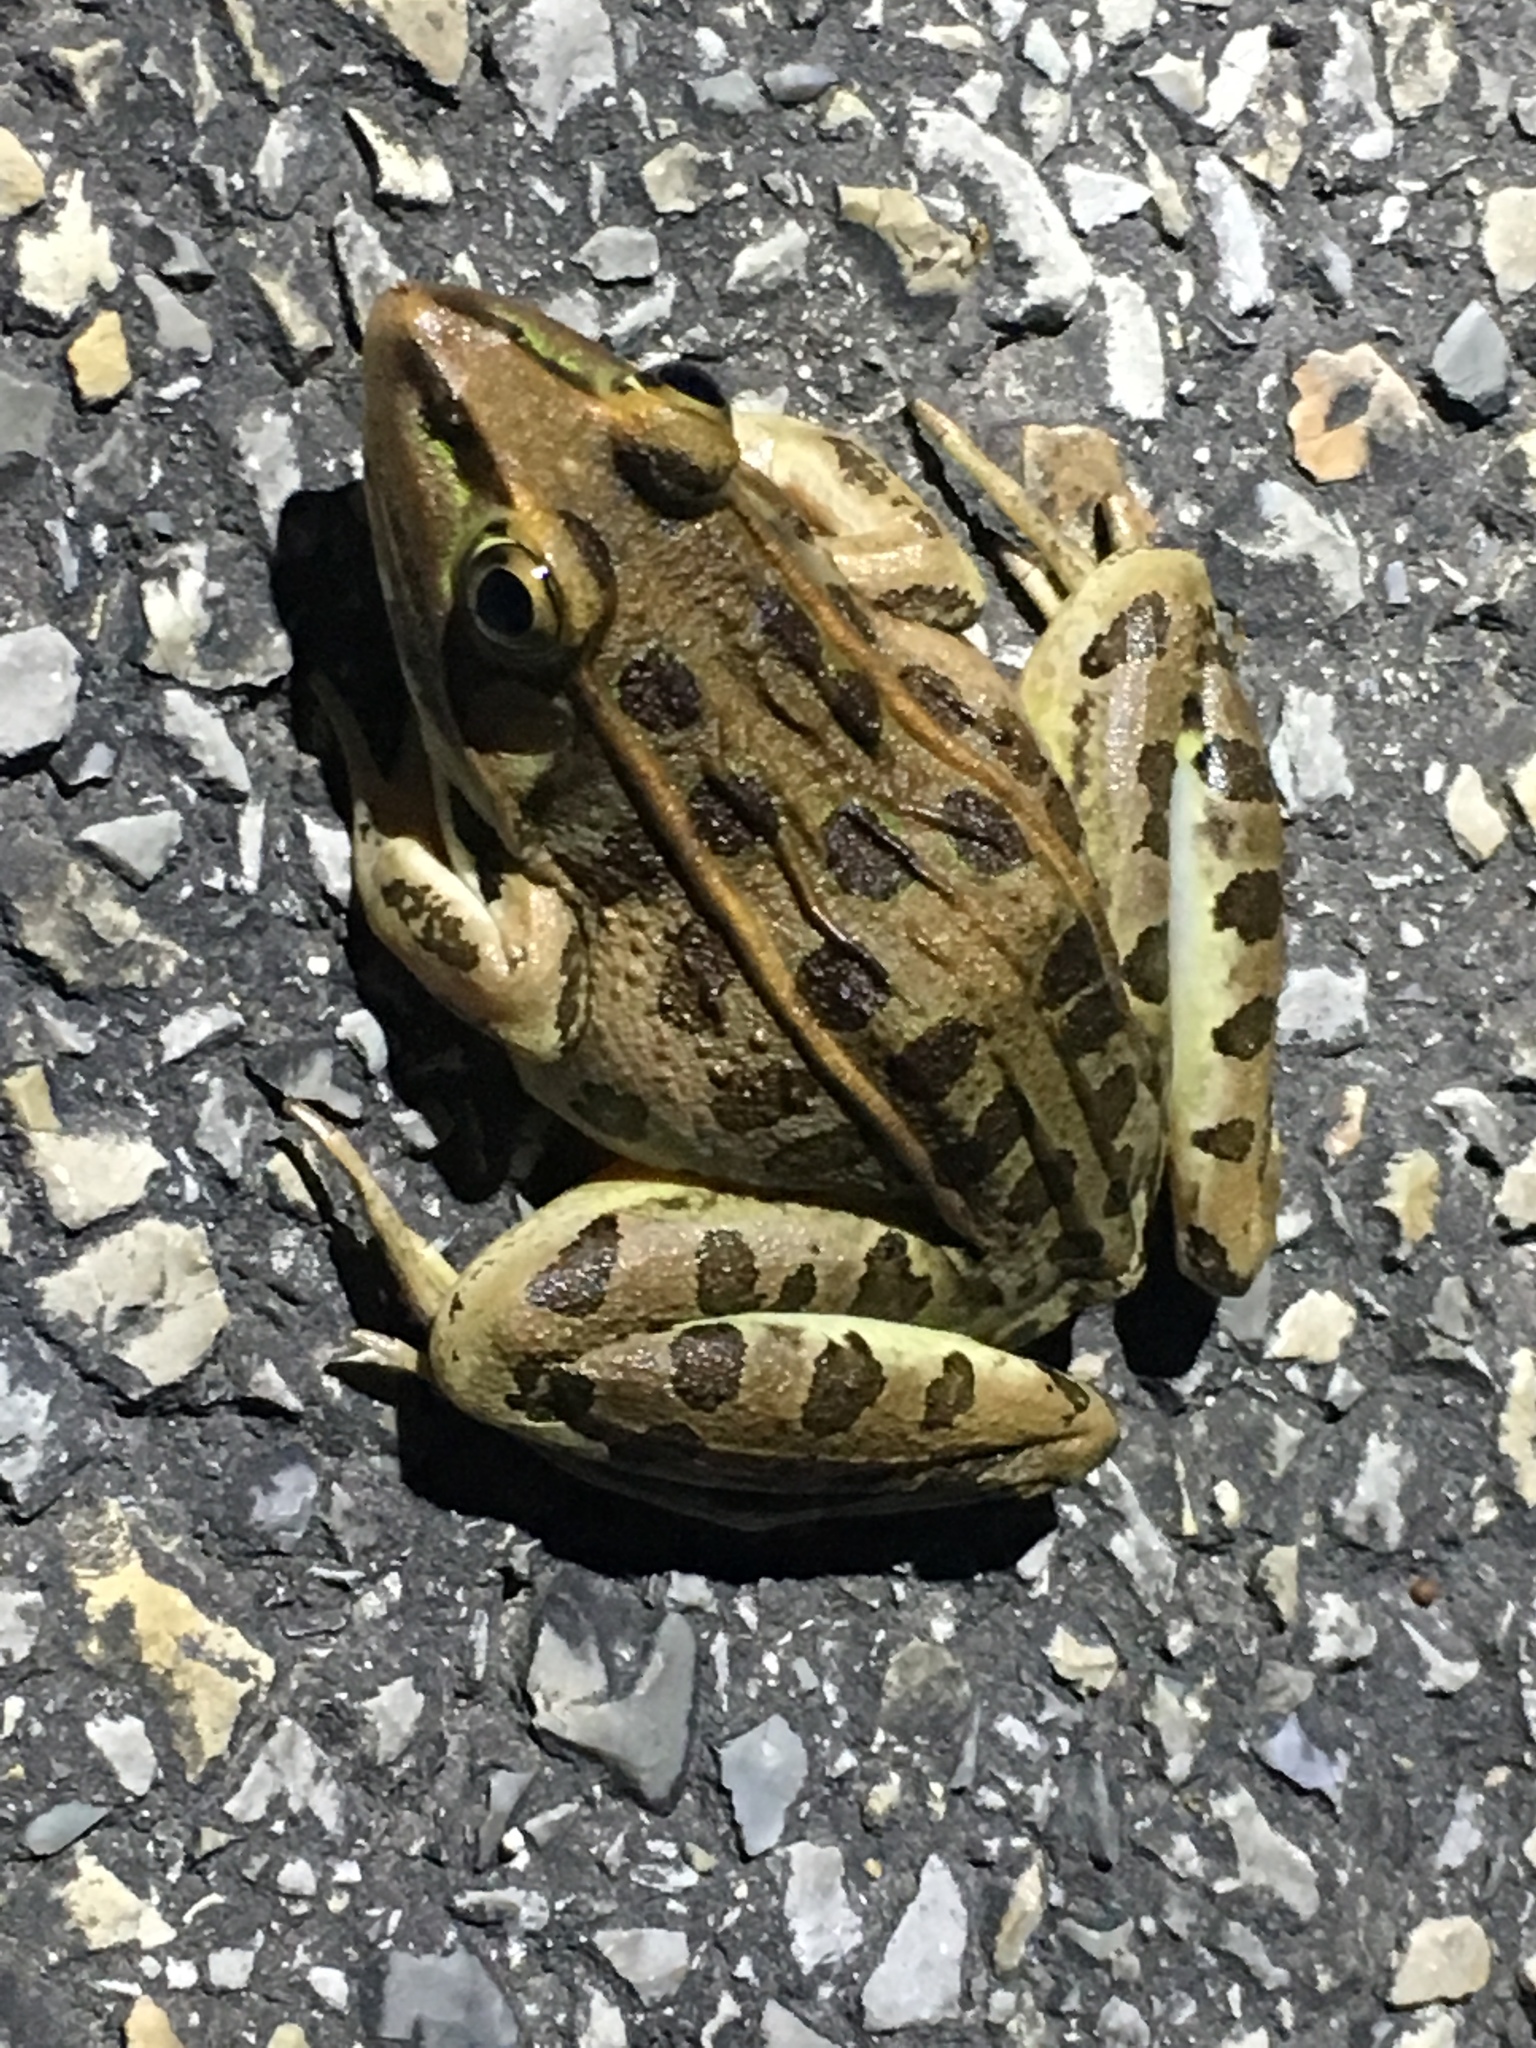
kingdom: Animalia
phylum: Chordata
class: Amphibia
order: Anura
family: Ranidae
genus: Lithobates
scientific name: Lithobates sphenocephalus
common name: Southern leopard frog
